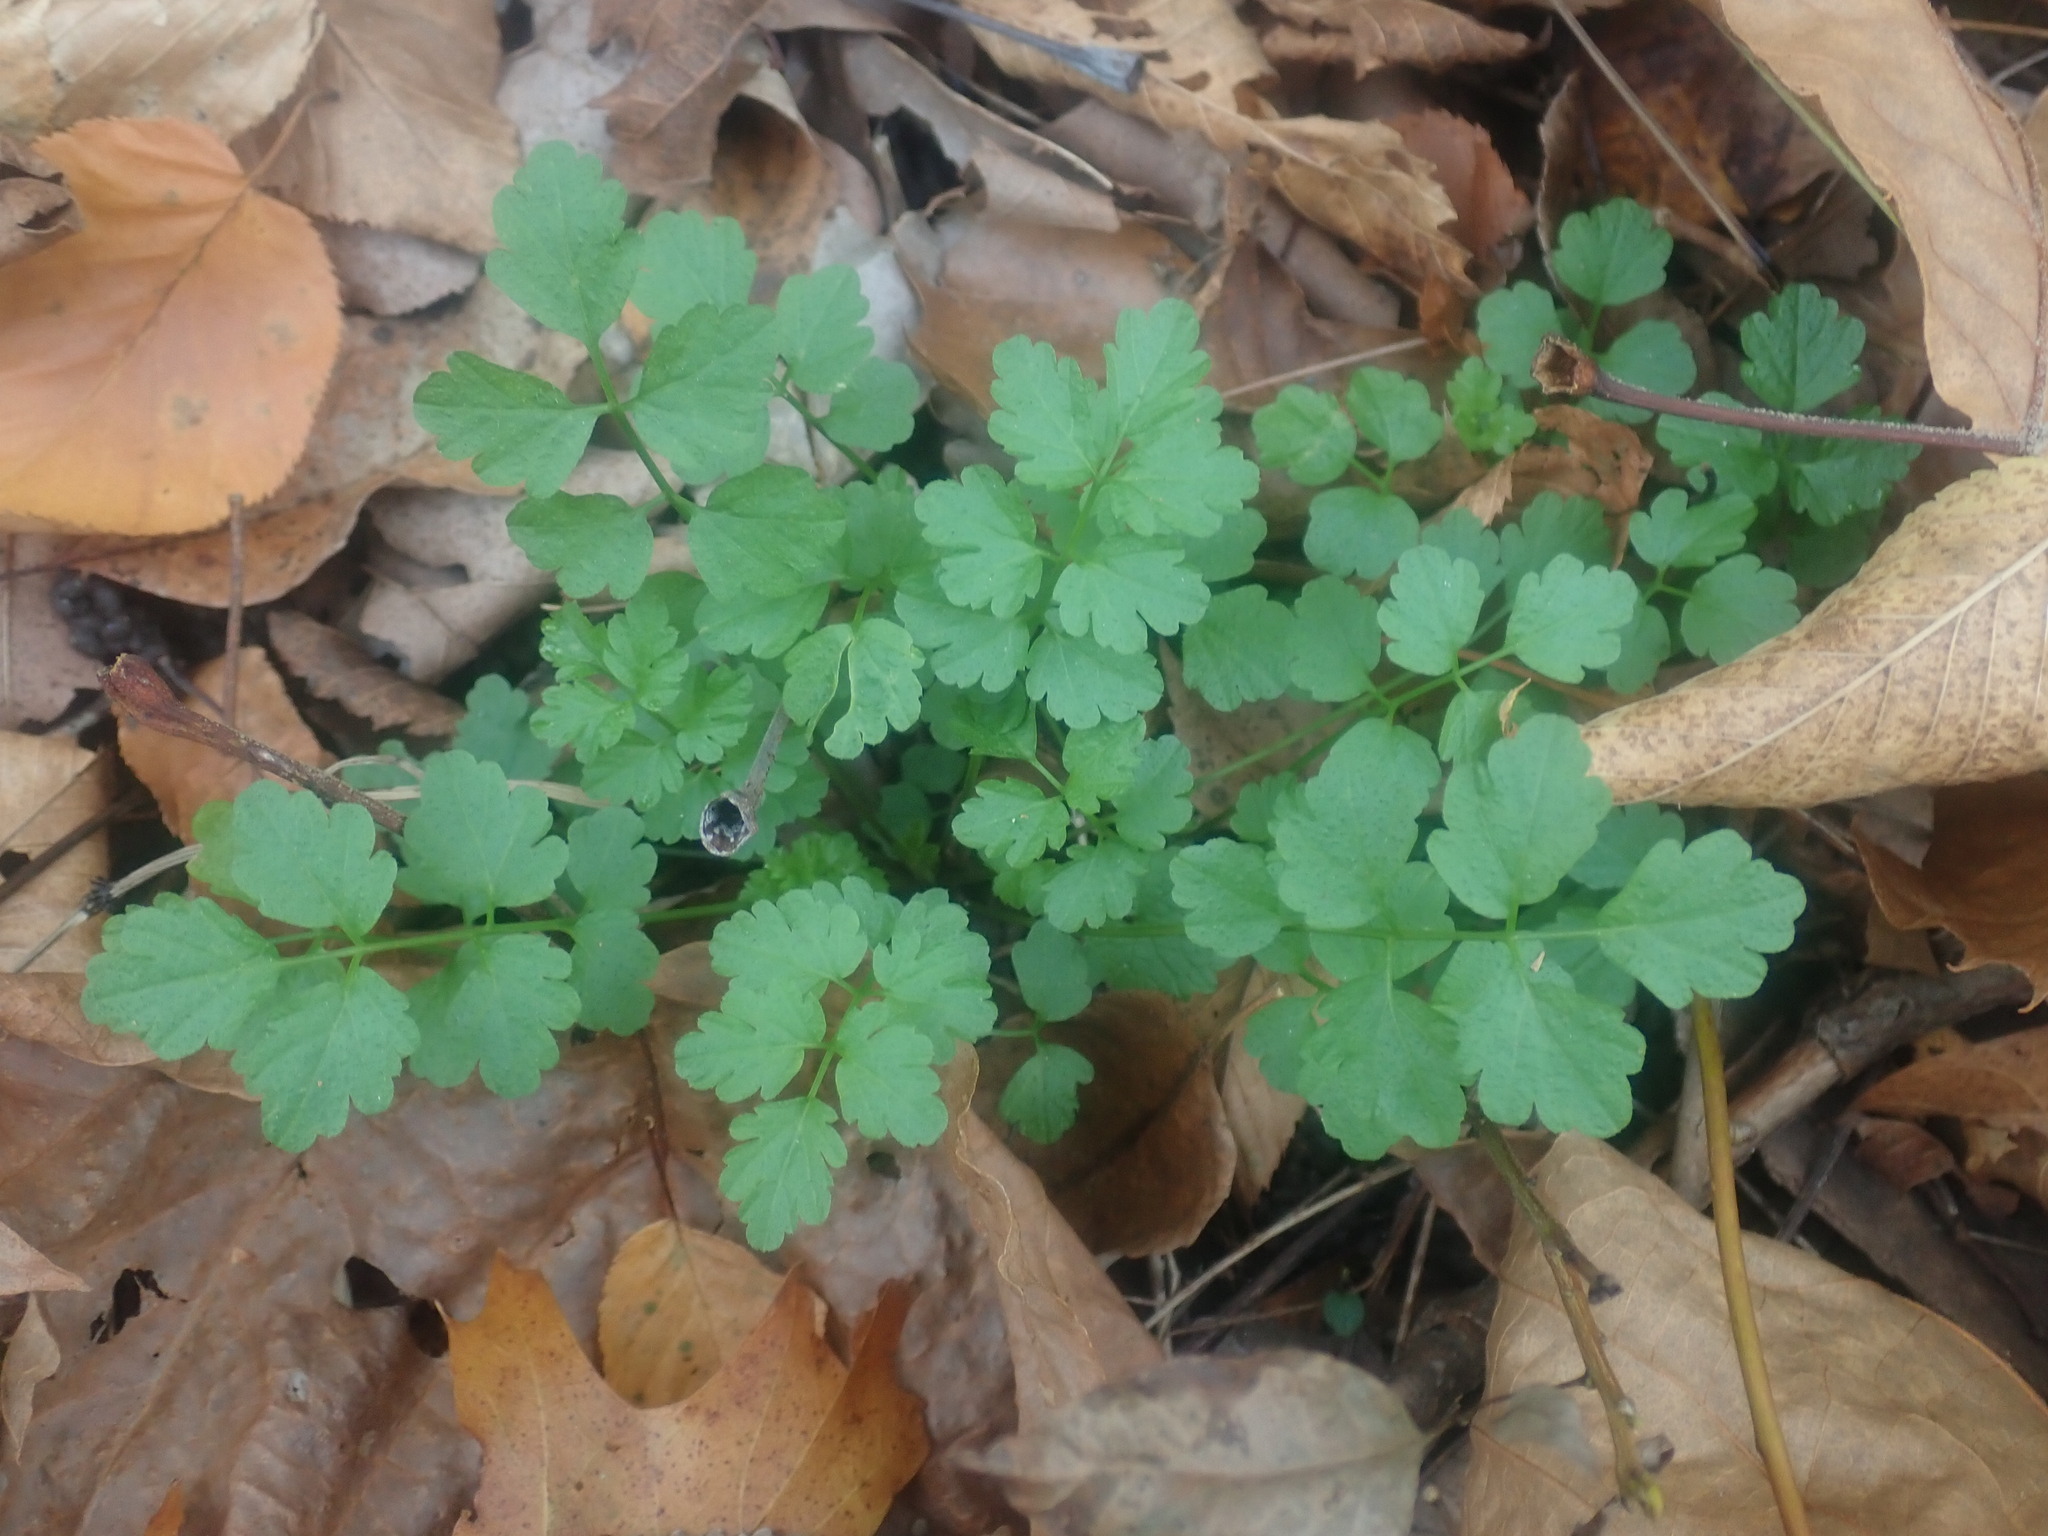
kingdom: Plantae
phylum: Tracheophyta
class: Magnoliopsida
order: Brassicales
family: Brassicaceae
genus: Cardamine
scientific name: Cardamine impatiens
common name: Narrow-leaved bitter-cress
